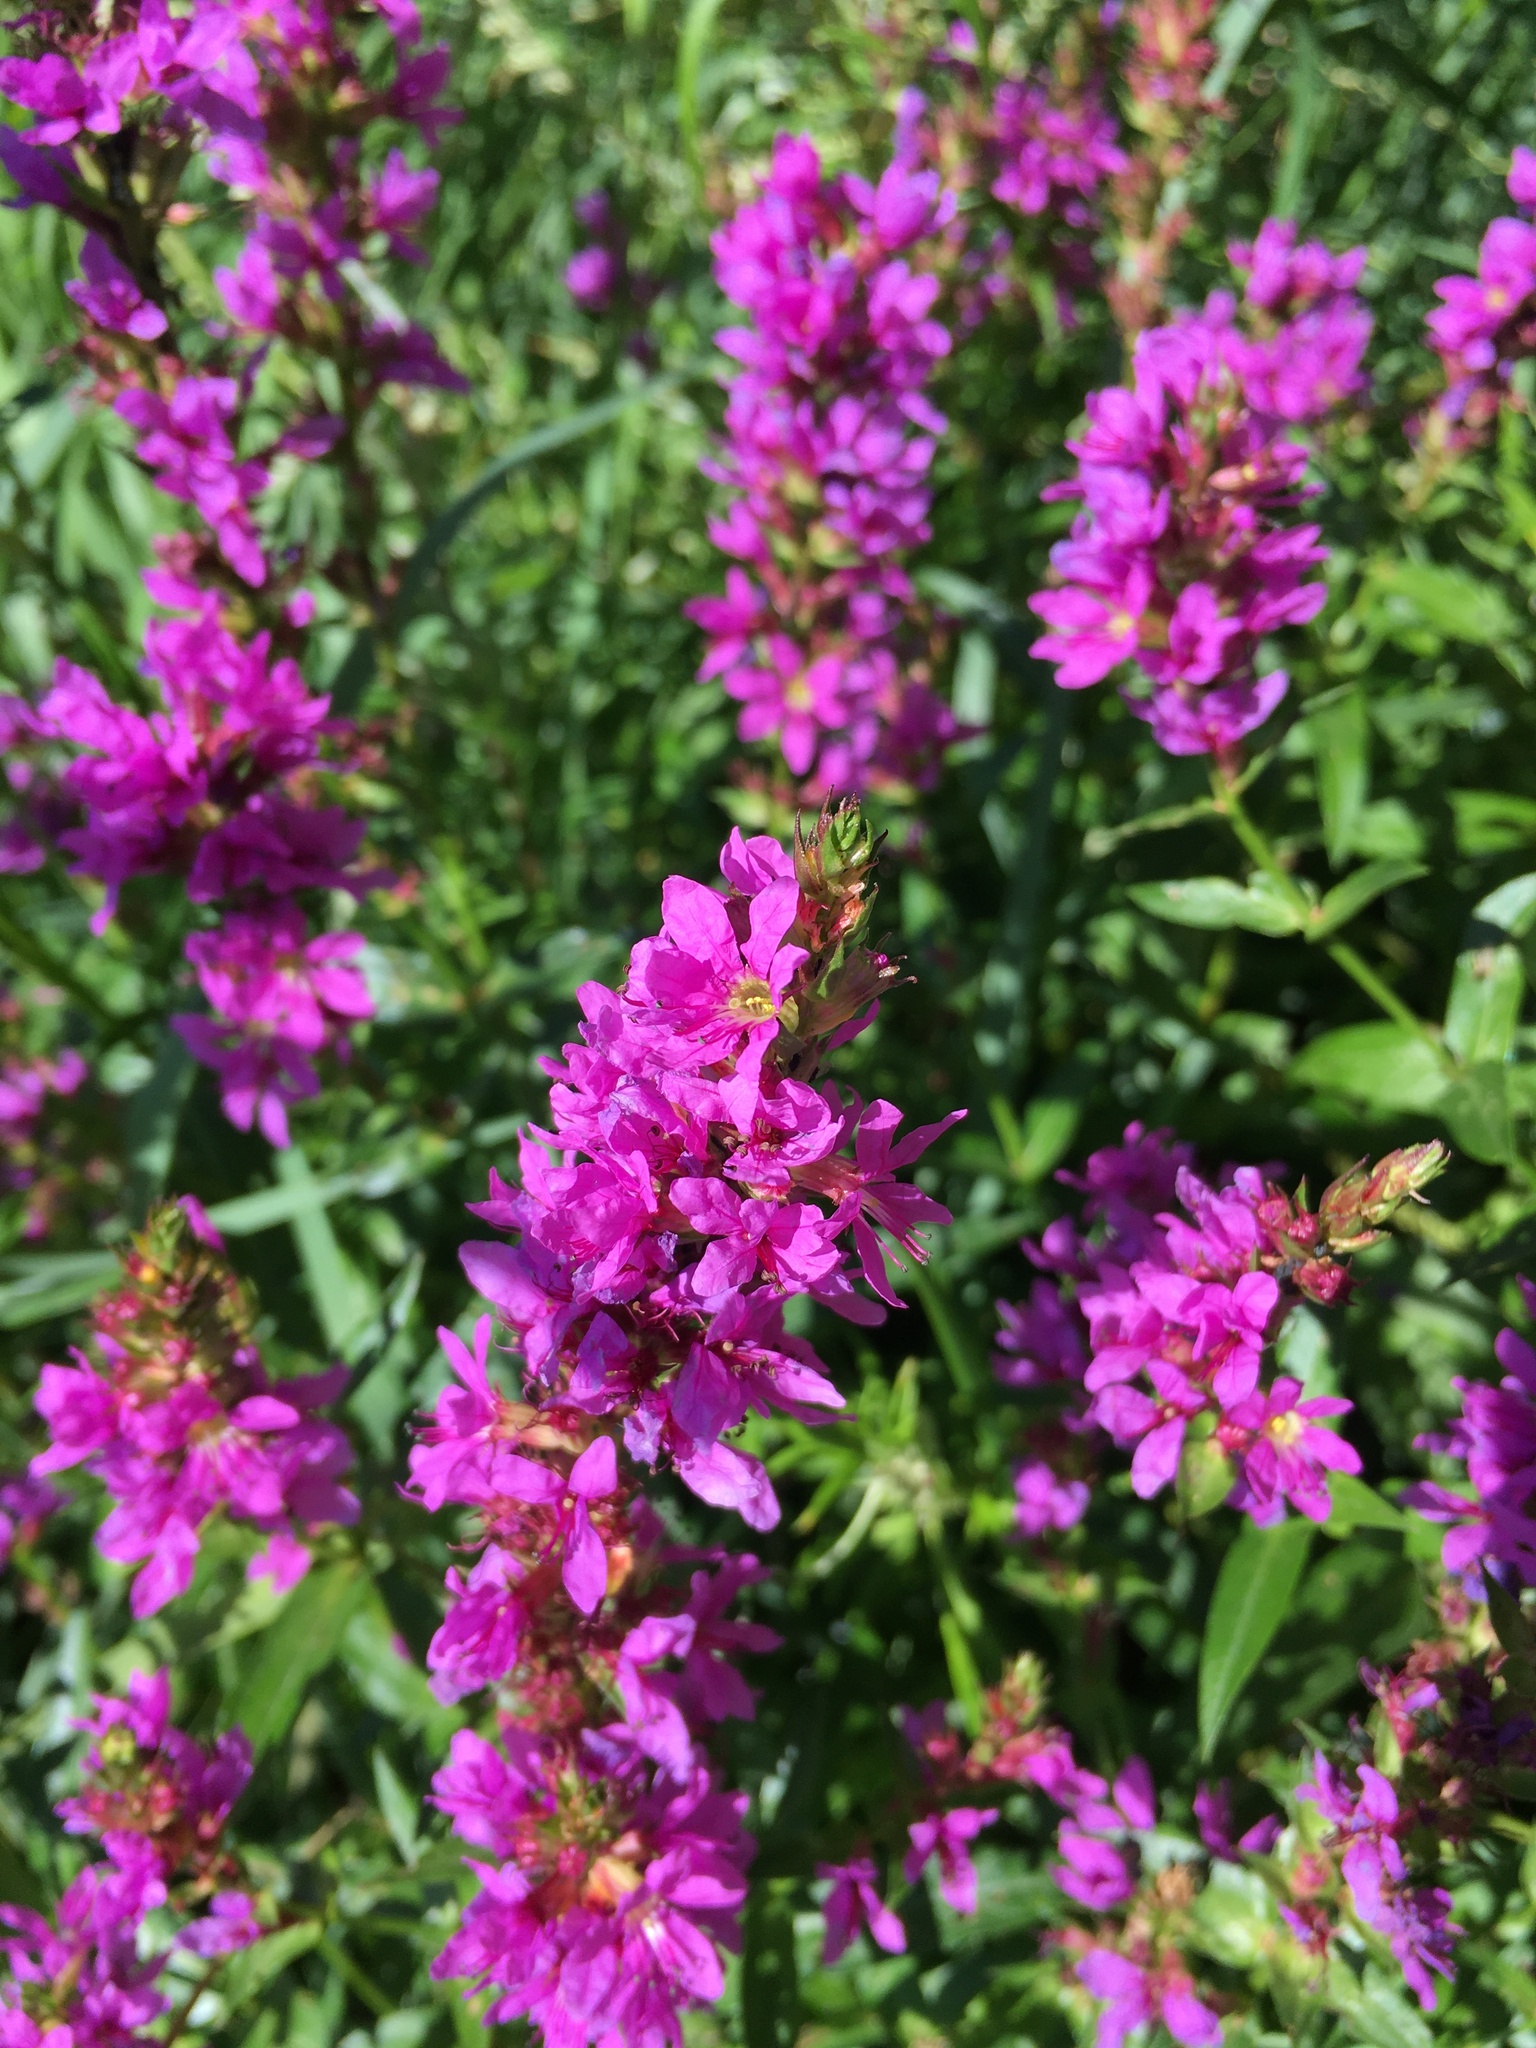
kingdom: Plantae
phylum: Tracheophyta
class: Magnoliopsida
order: Myrtales
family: Lythraceae
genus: Lythrum
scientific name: Lythrum salicaria
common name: Purple loosestrife
